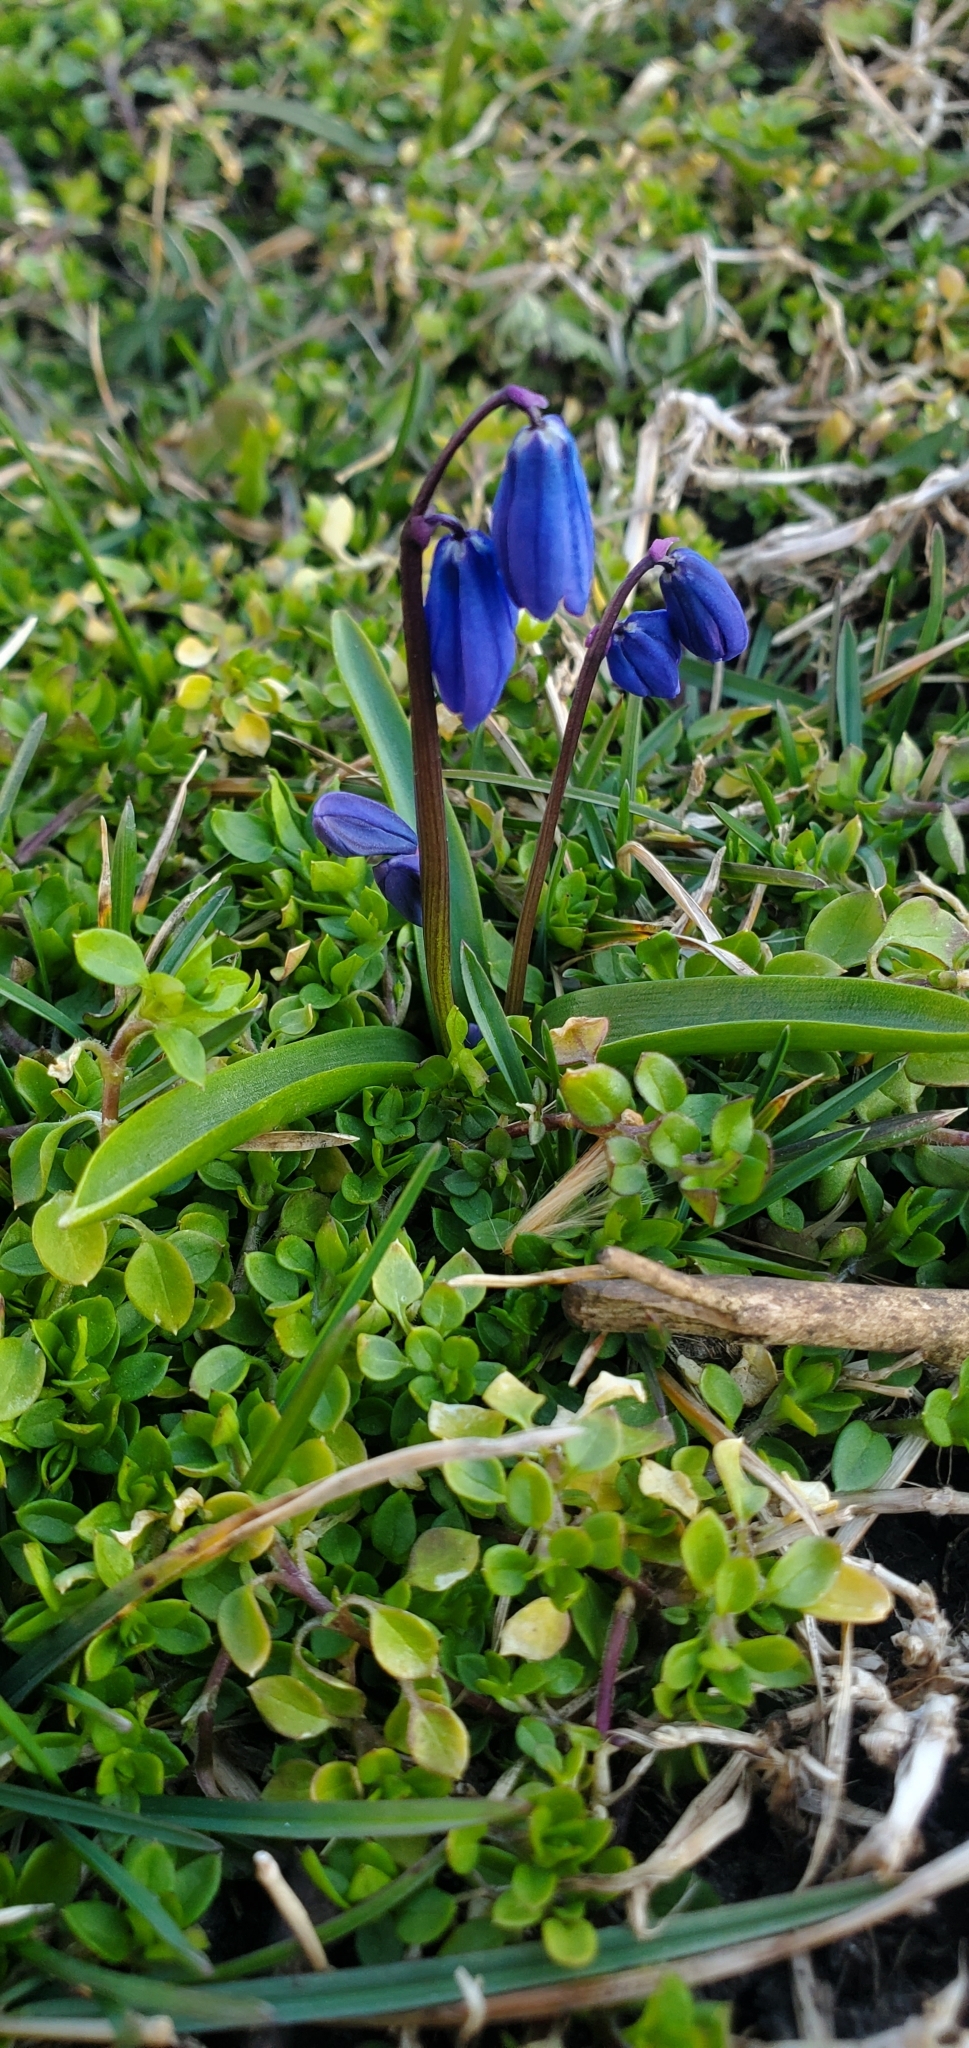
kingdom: Plantae
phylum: Tracheophyta
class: Liliopsida
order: Asparagales
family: Asparagaceae
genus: Scilla
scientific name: Scilla siberica
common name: Siberian squill
